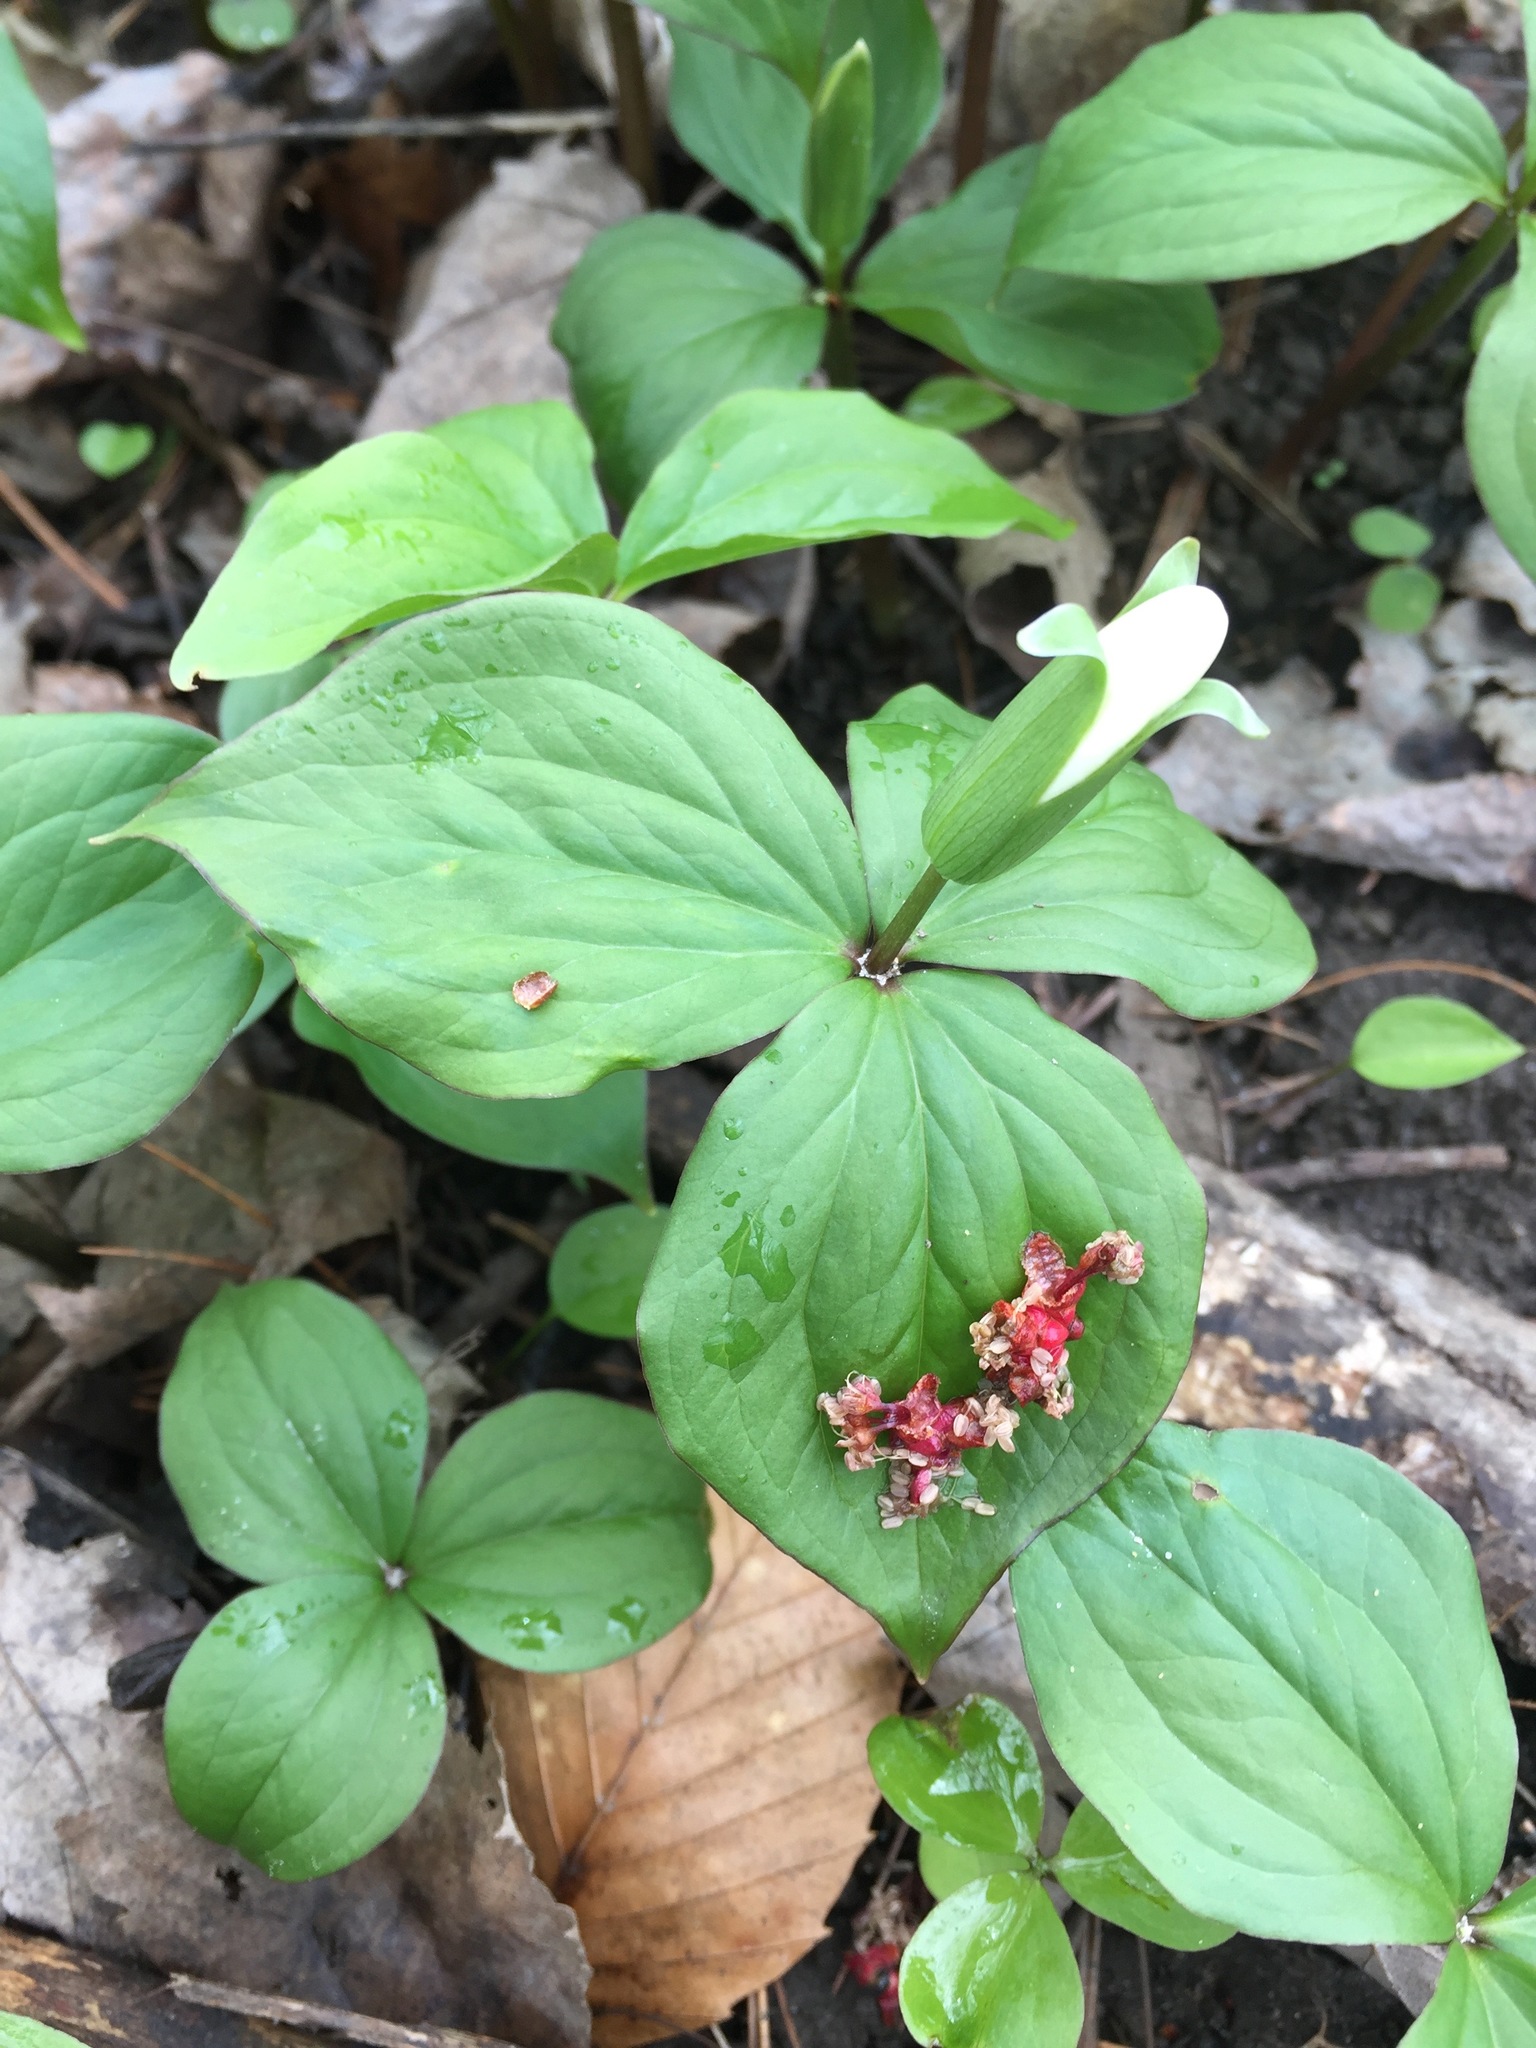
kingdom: Plantae
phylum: Tracheophyta
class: Liliopsida
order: Liliales
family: Melanthiaceae
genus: Trillium
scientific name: Trillium grandiflorum
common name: Great white trillium
